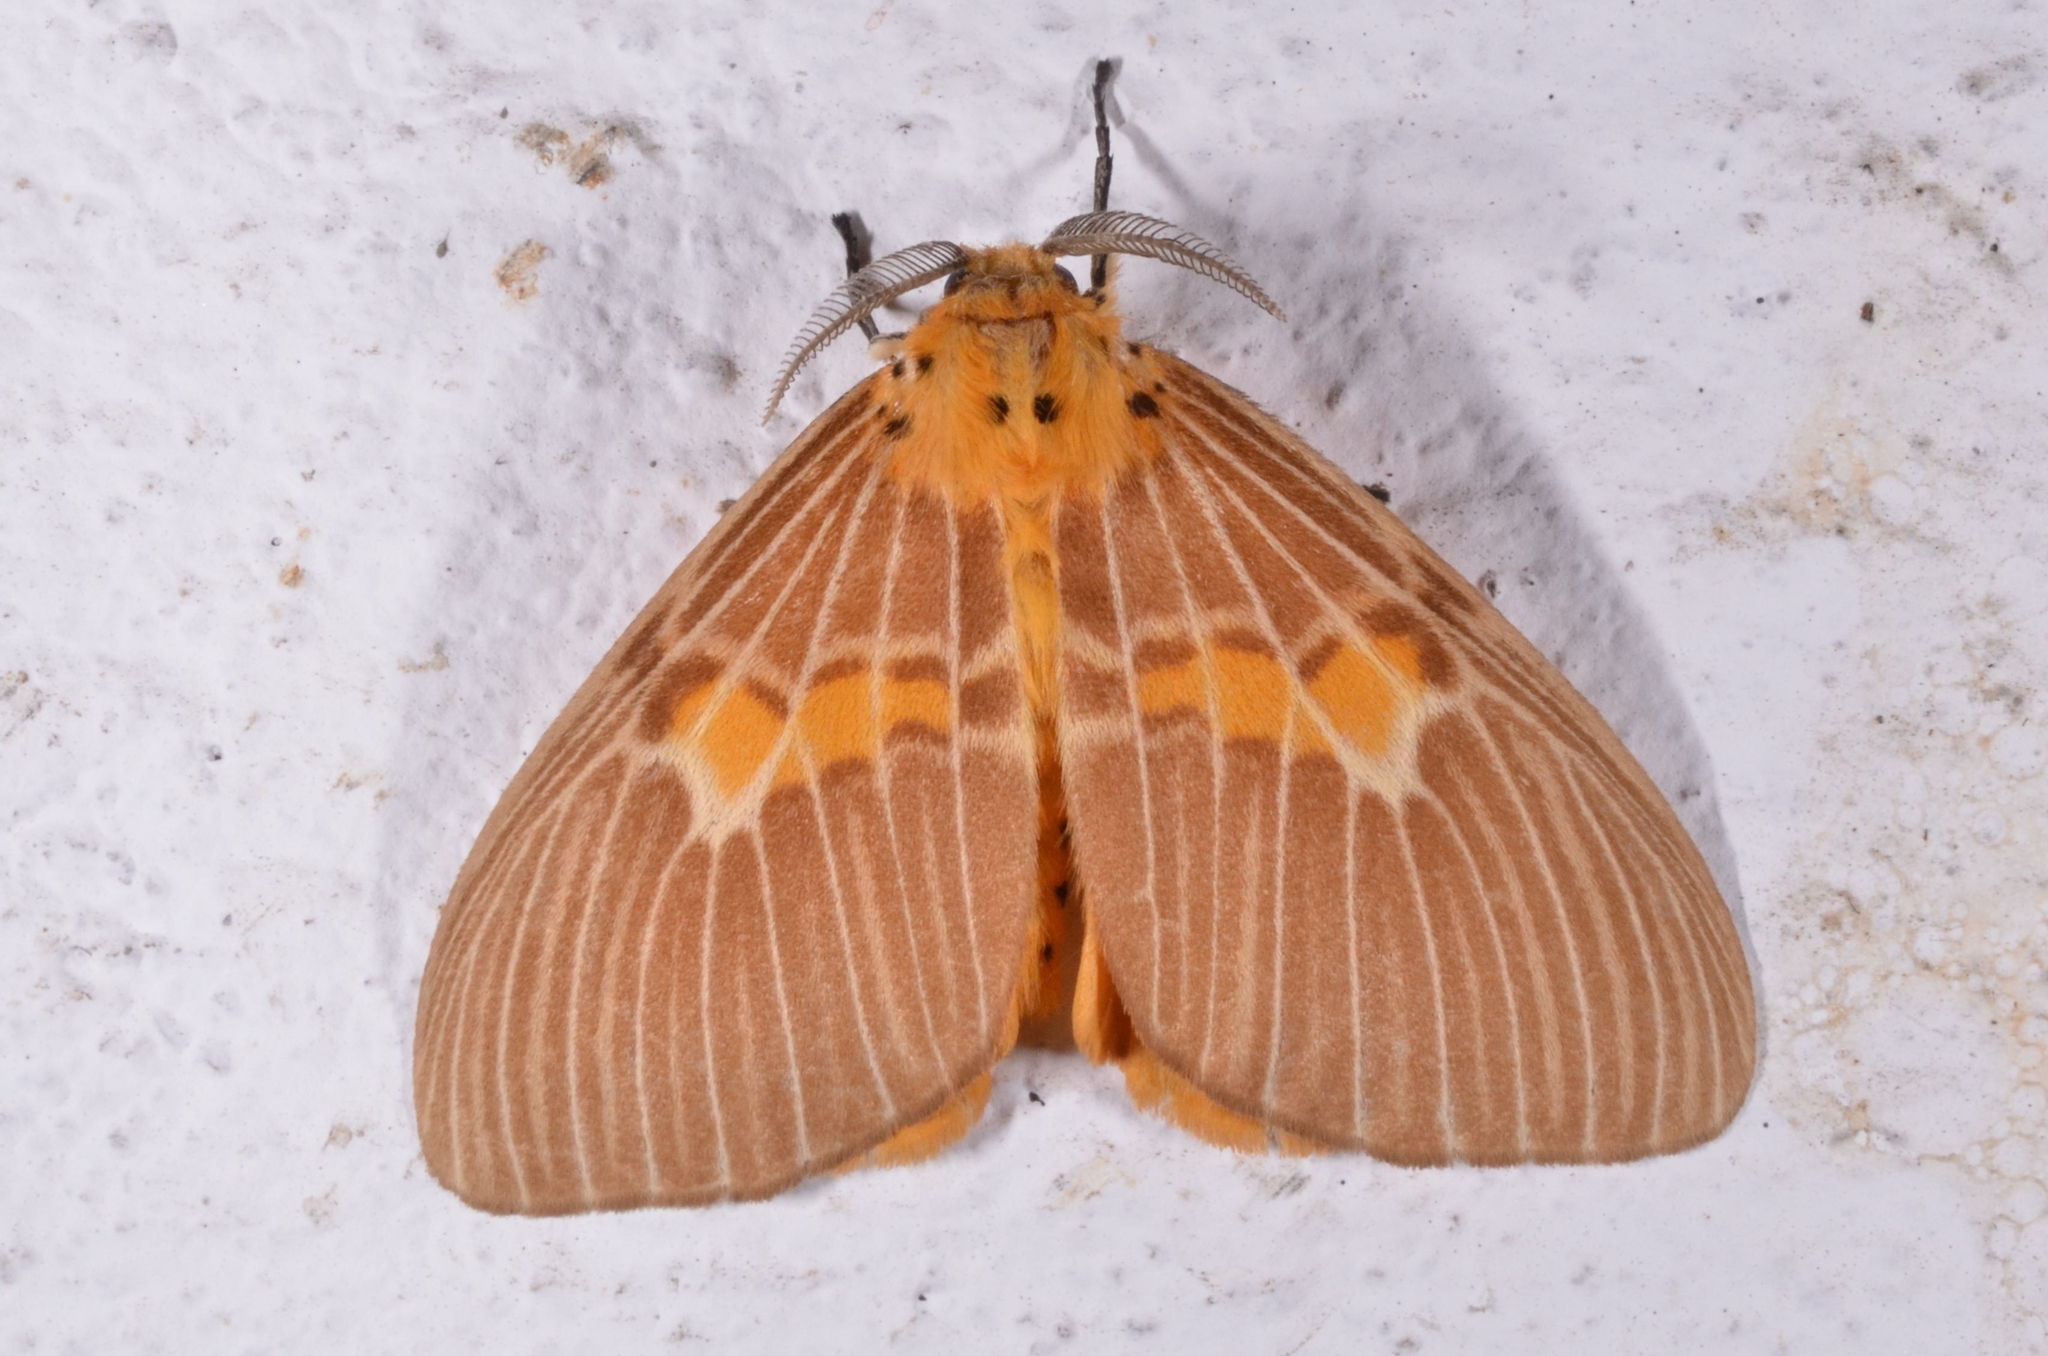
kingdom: Animalia
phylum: Arthropoda
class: Insecta
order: Lepidoptera
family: Erebidae
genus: Cispia
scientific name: Cispia venosa
